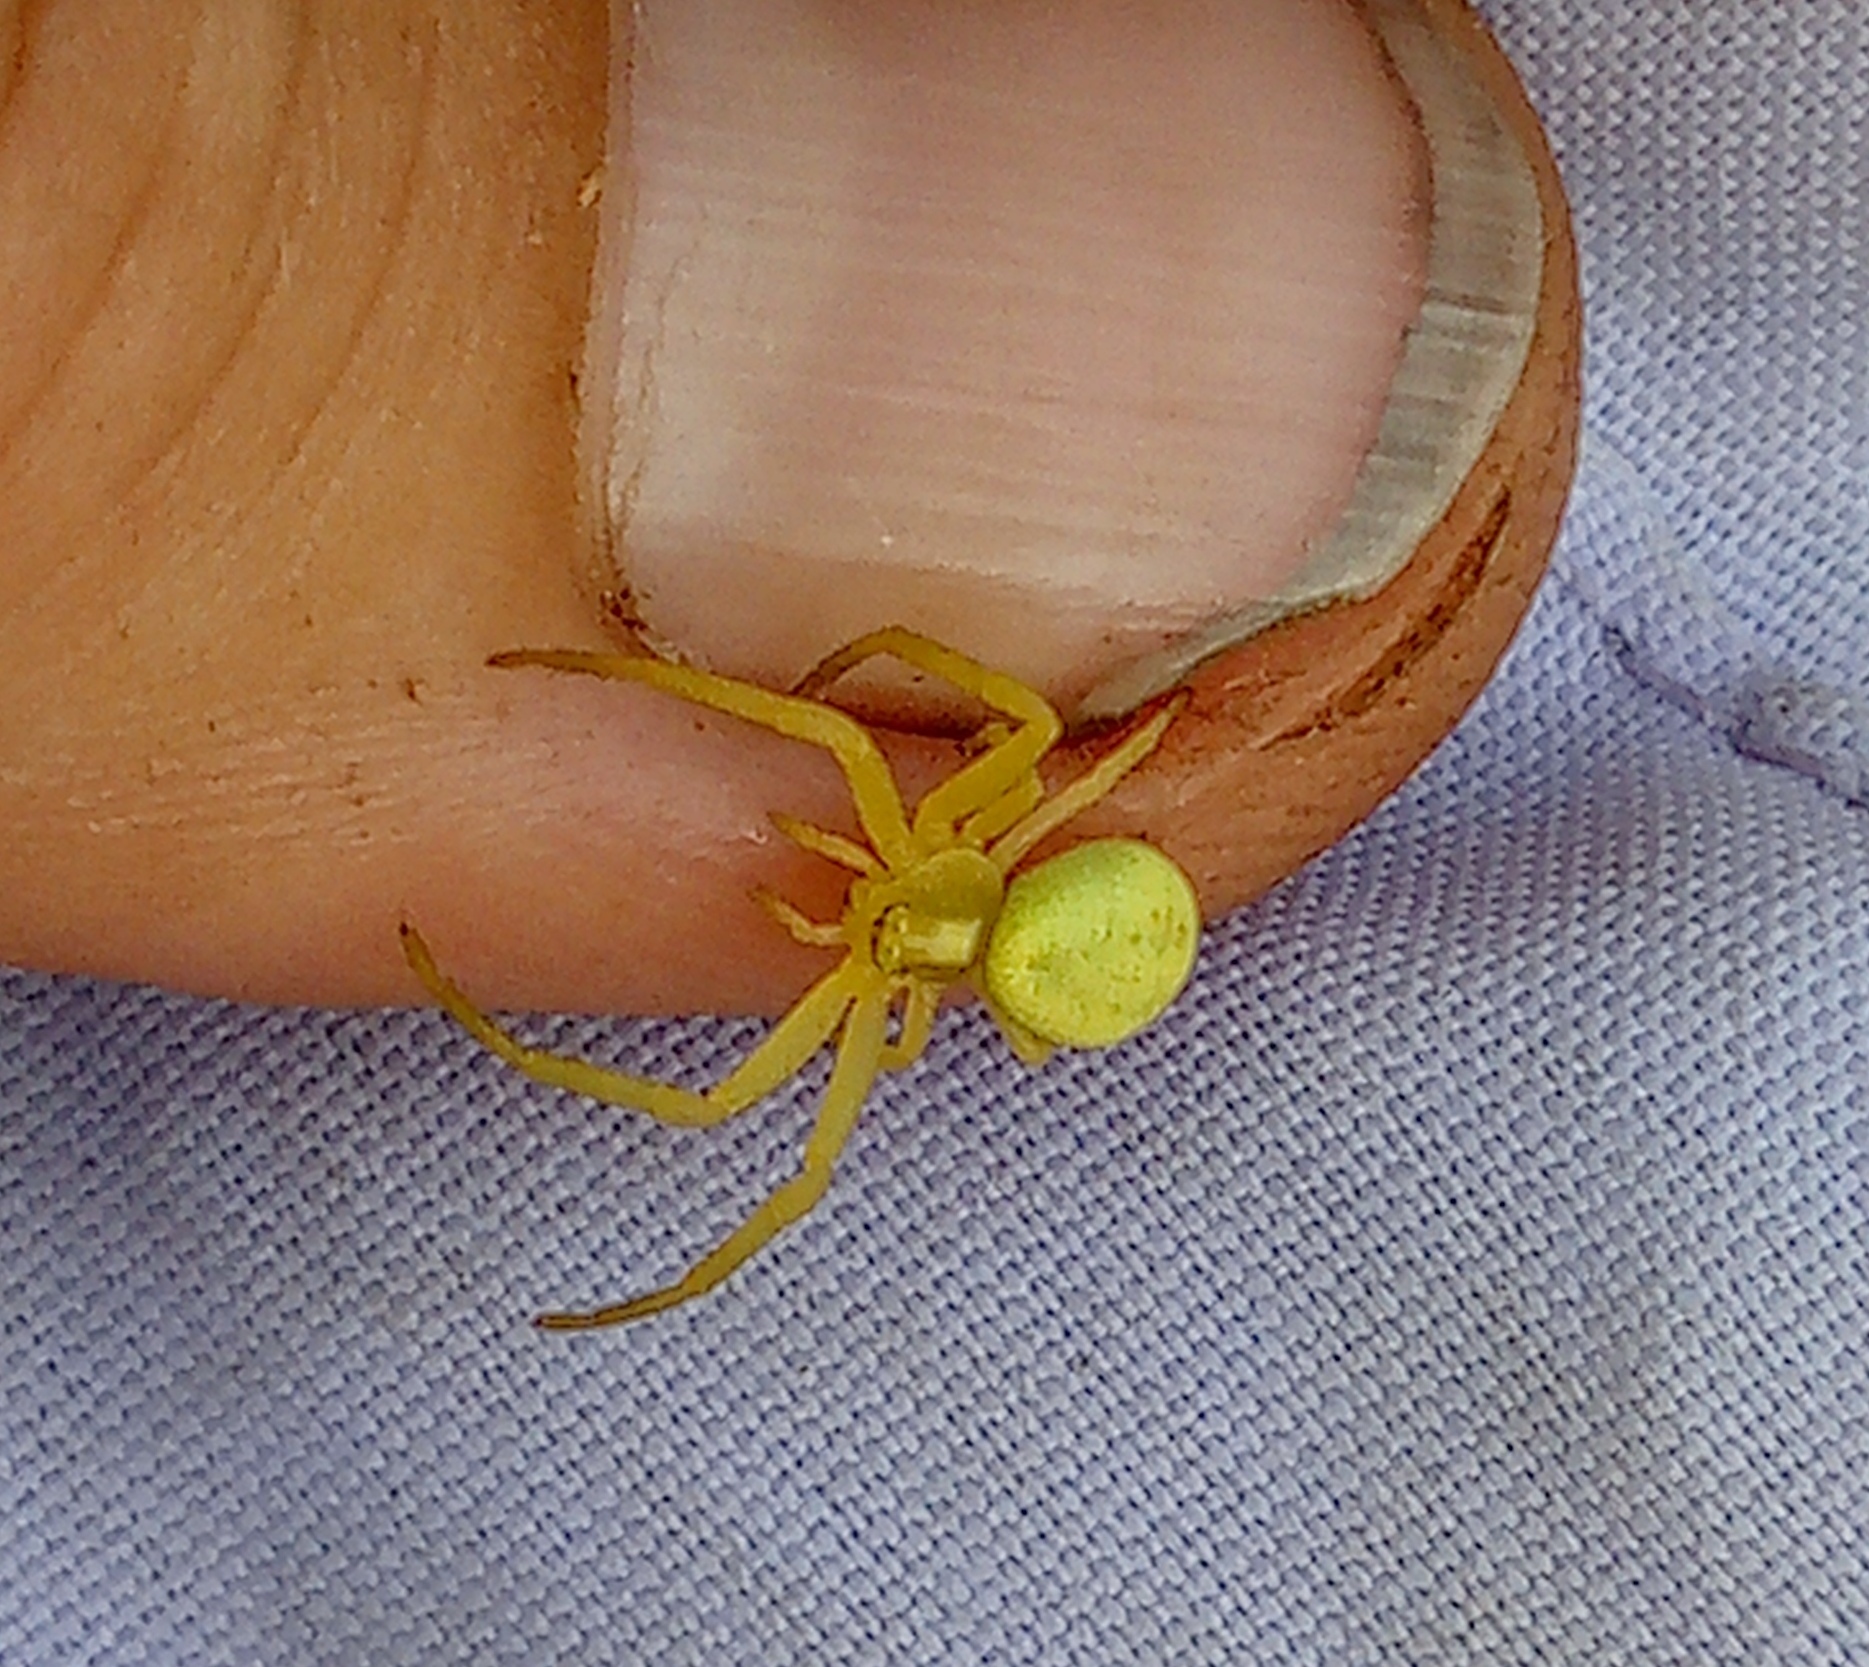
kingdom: Animalia
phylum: Arthropoda
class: Arachnida
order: Araneae
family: Thomisidae
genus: Misumena
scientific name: Misumena vatia
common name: Goldenrod crab spider
